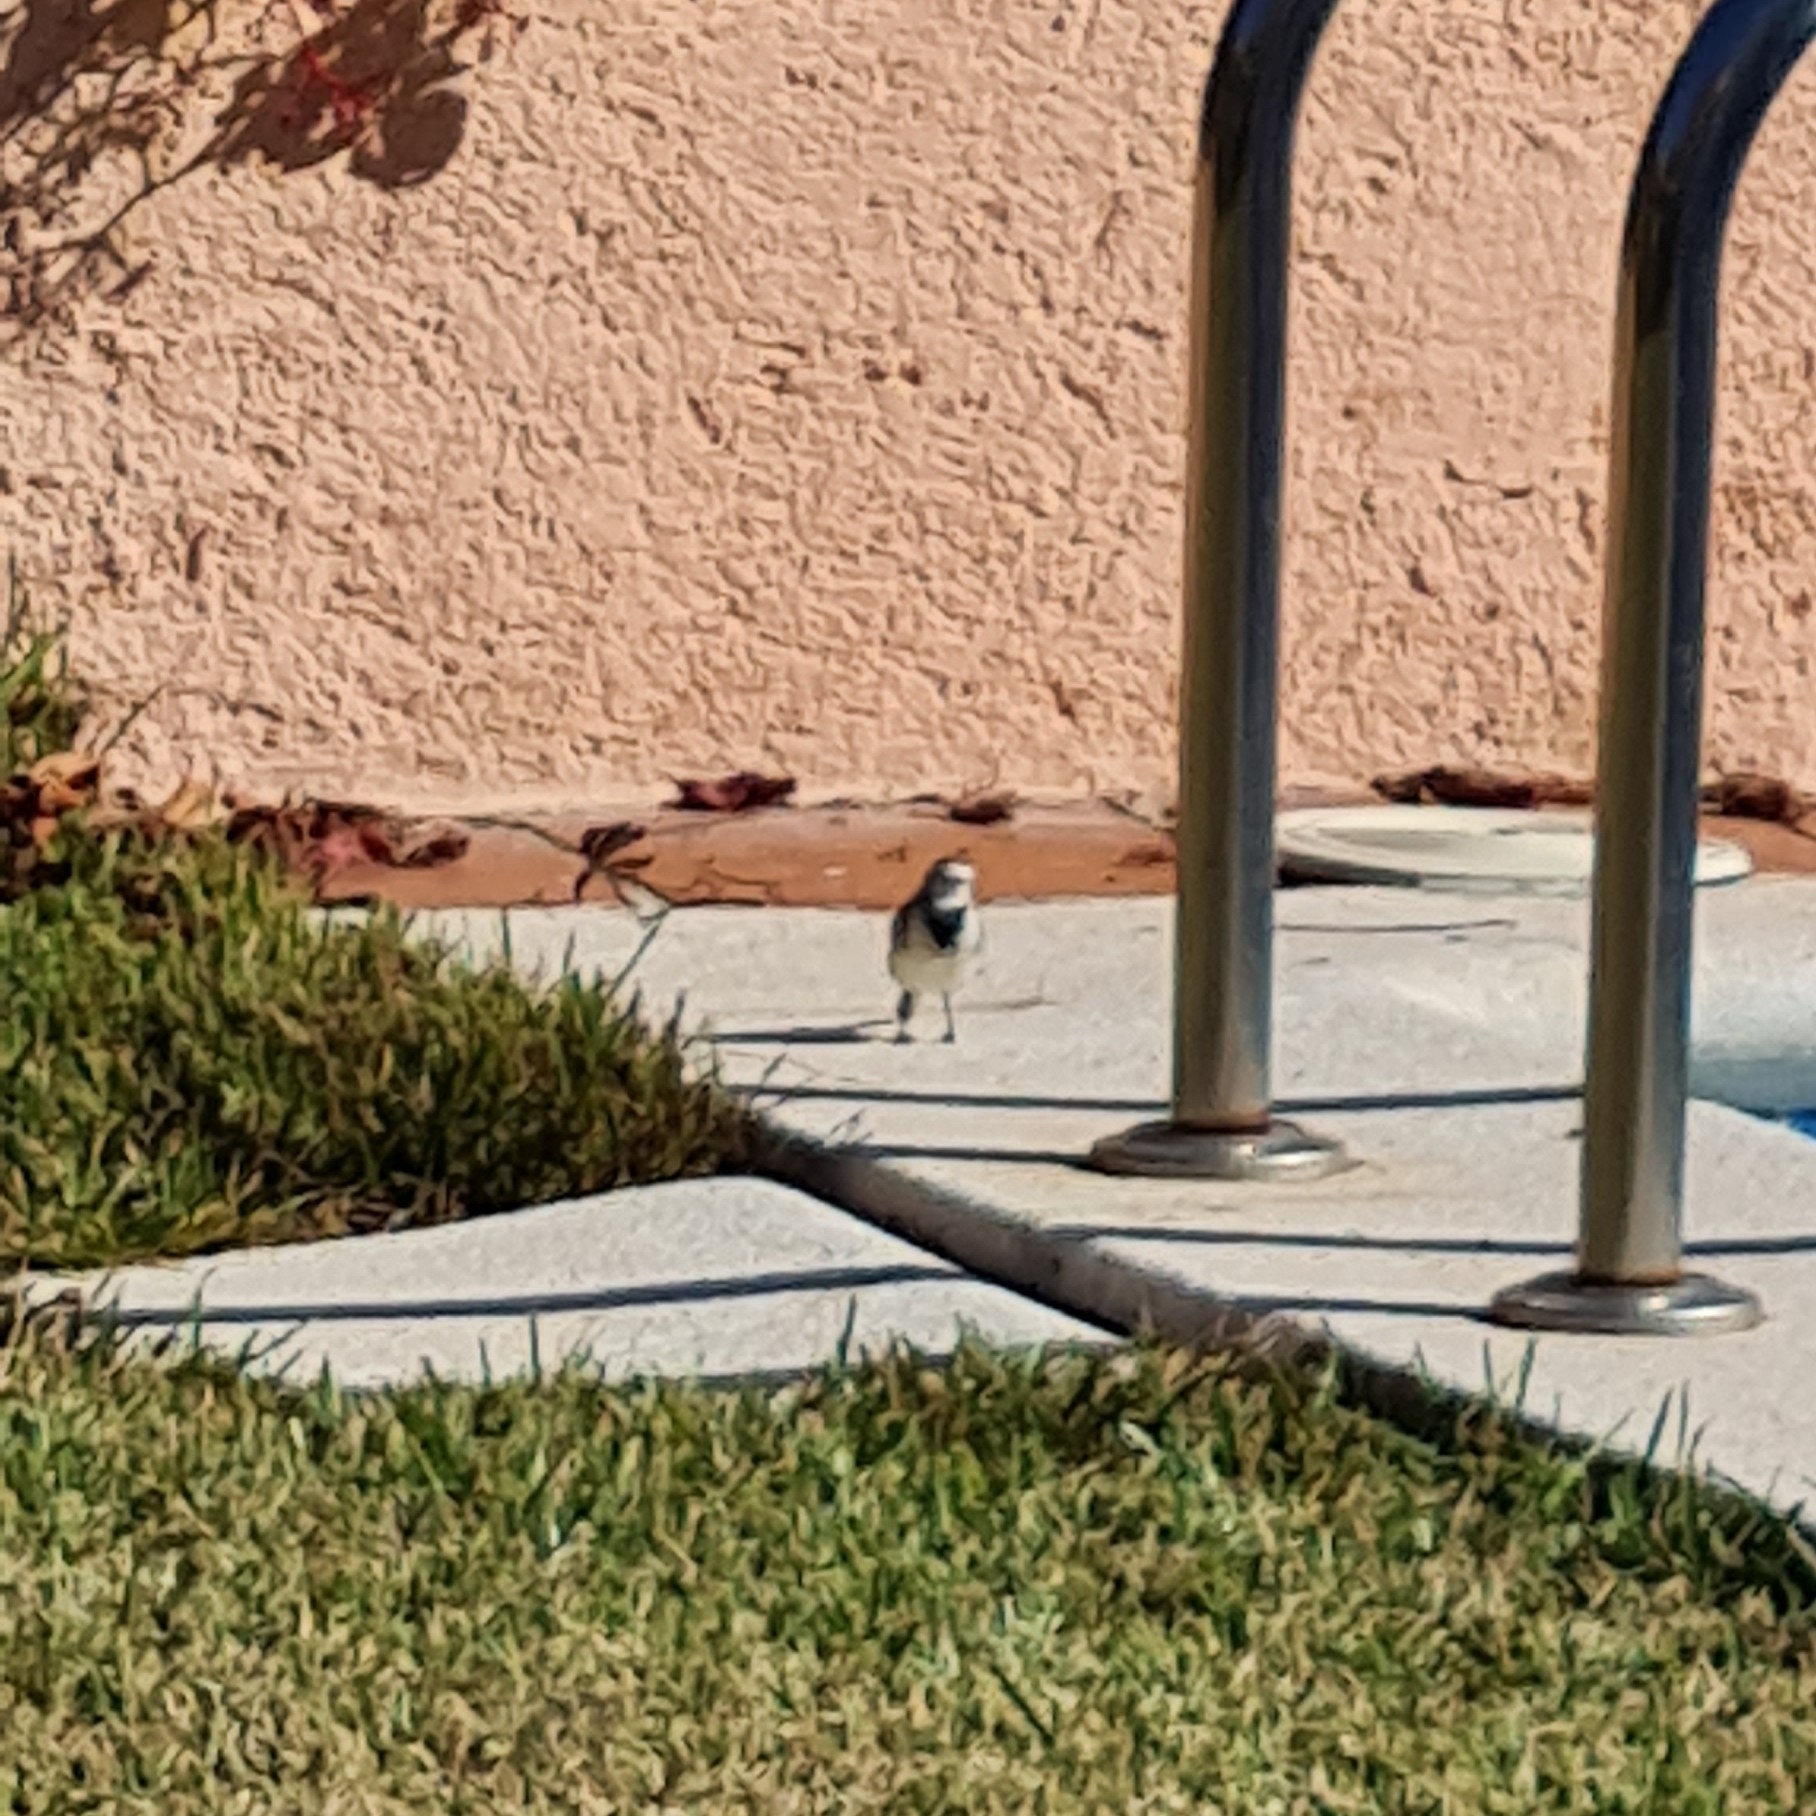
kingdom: Animalia
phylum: Chordata
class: Aves
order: Passeriformes
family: Motacillidae
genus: Motacilla
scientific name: Motacilla alba
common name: White wagtail
